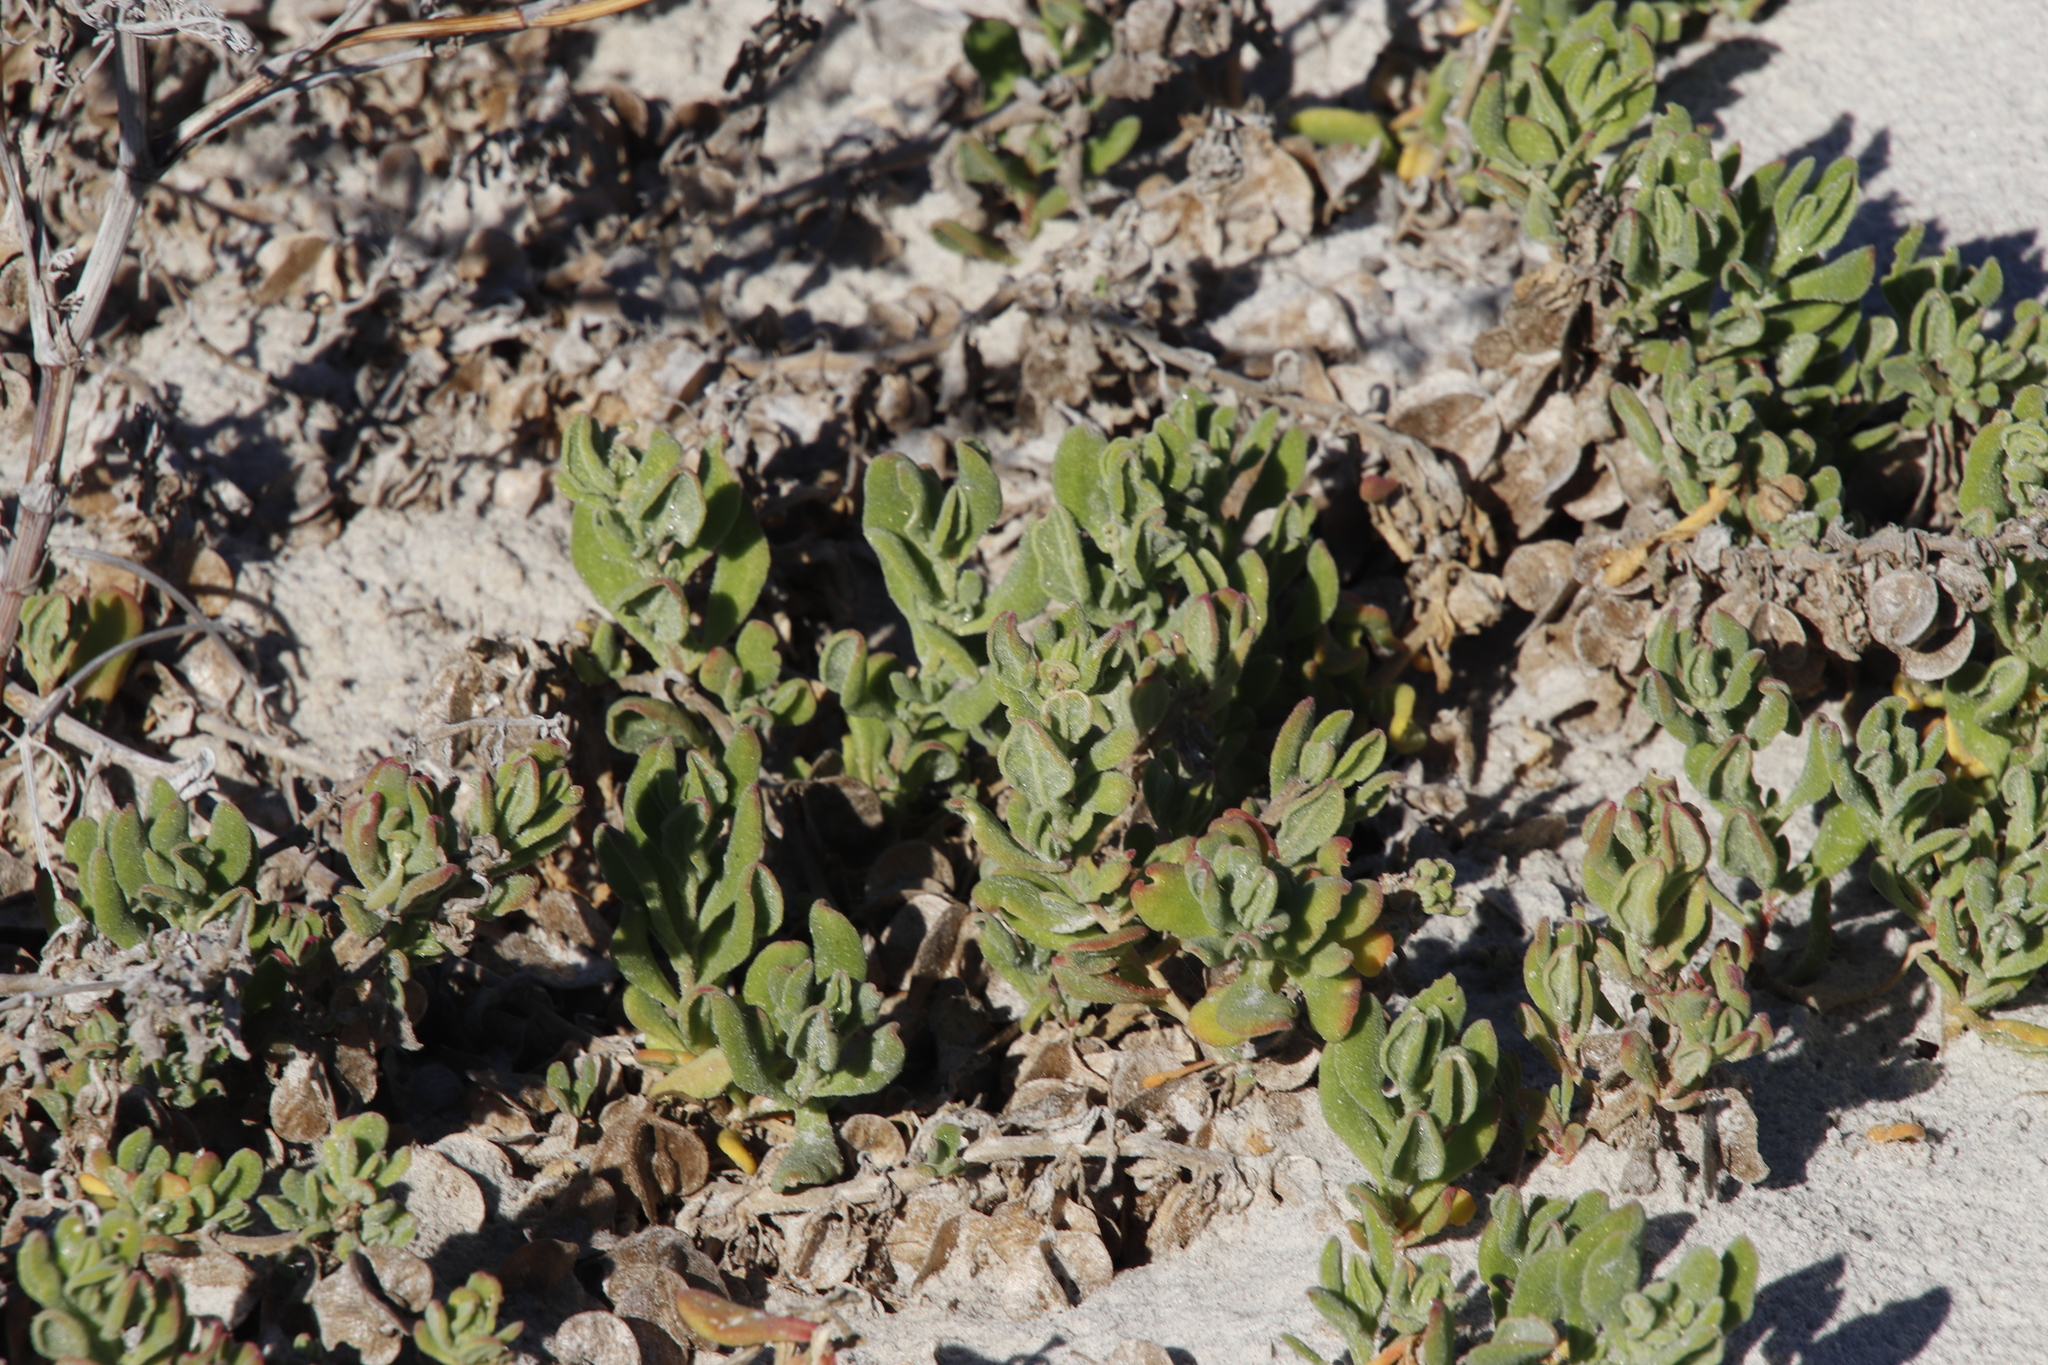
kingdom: Plantae
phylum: Tracheophyta
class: Magnoliopsida
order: Caryophyllales
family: Aizoaceae
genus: Tetragonia
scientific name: Tetragonia decumbens
